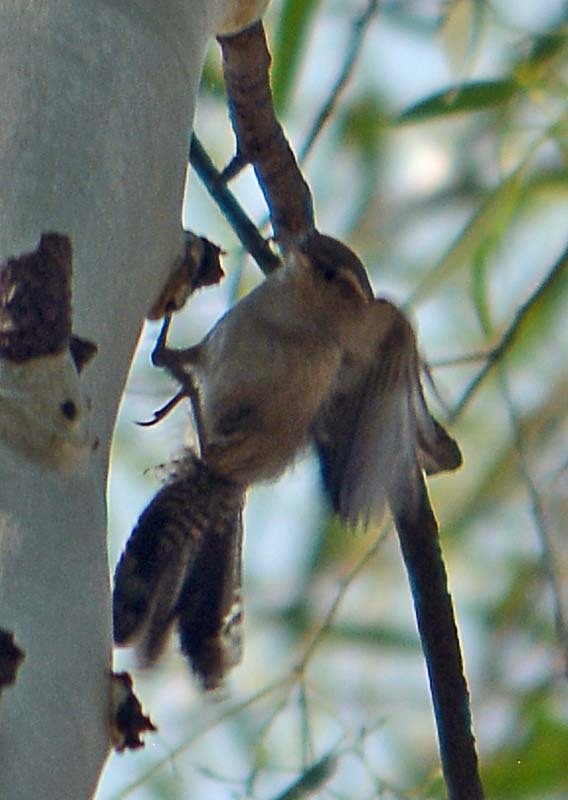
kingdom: Animalia
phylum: Chordata
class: Aves
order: Passeriformes
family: Troglodytidae
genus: Thryomanes
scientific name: Thryomanes bewickii
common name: Bewick's wren
